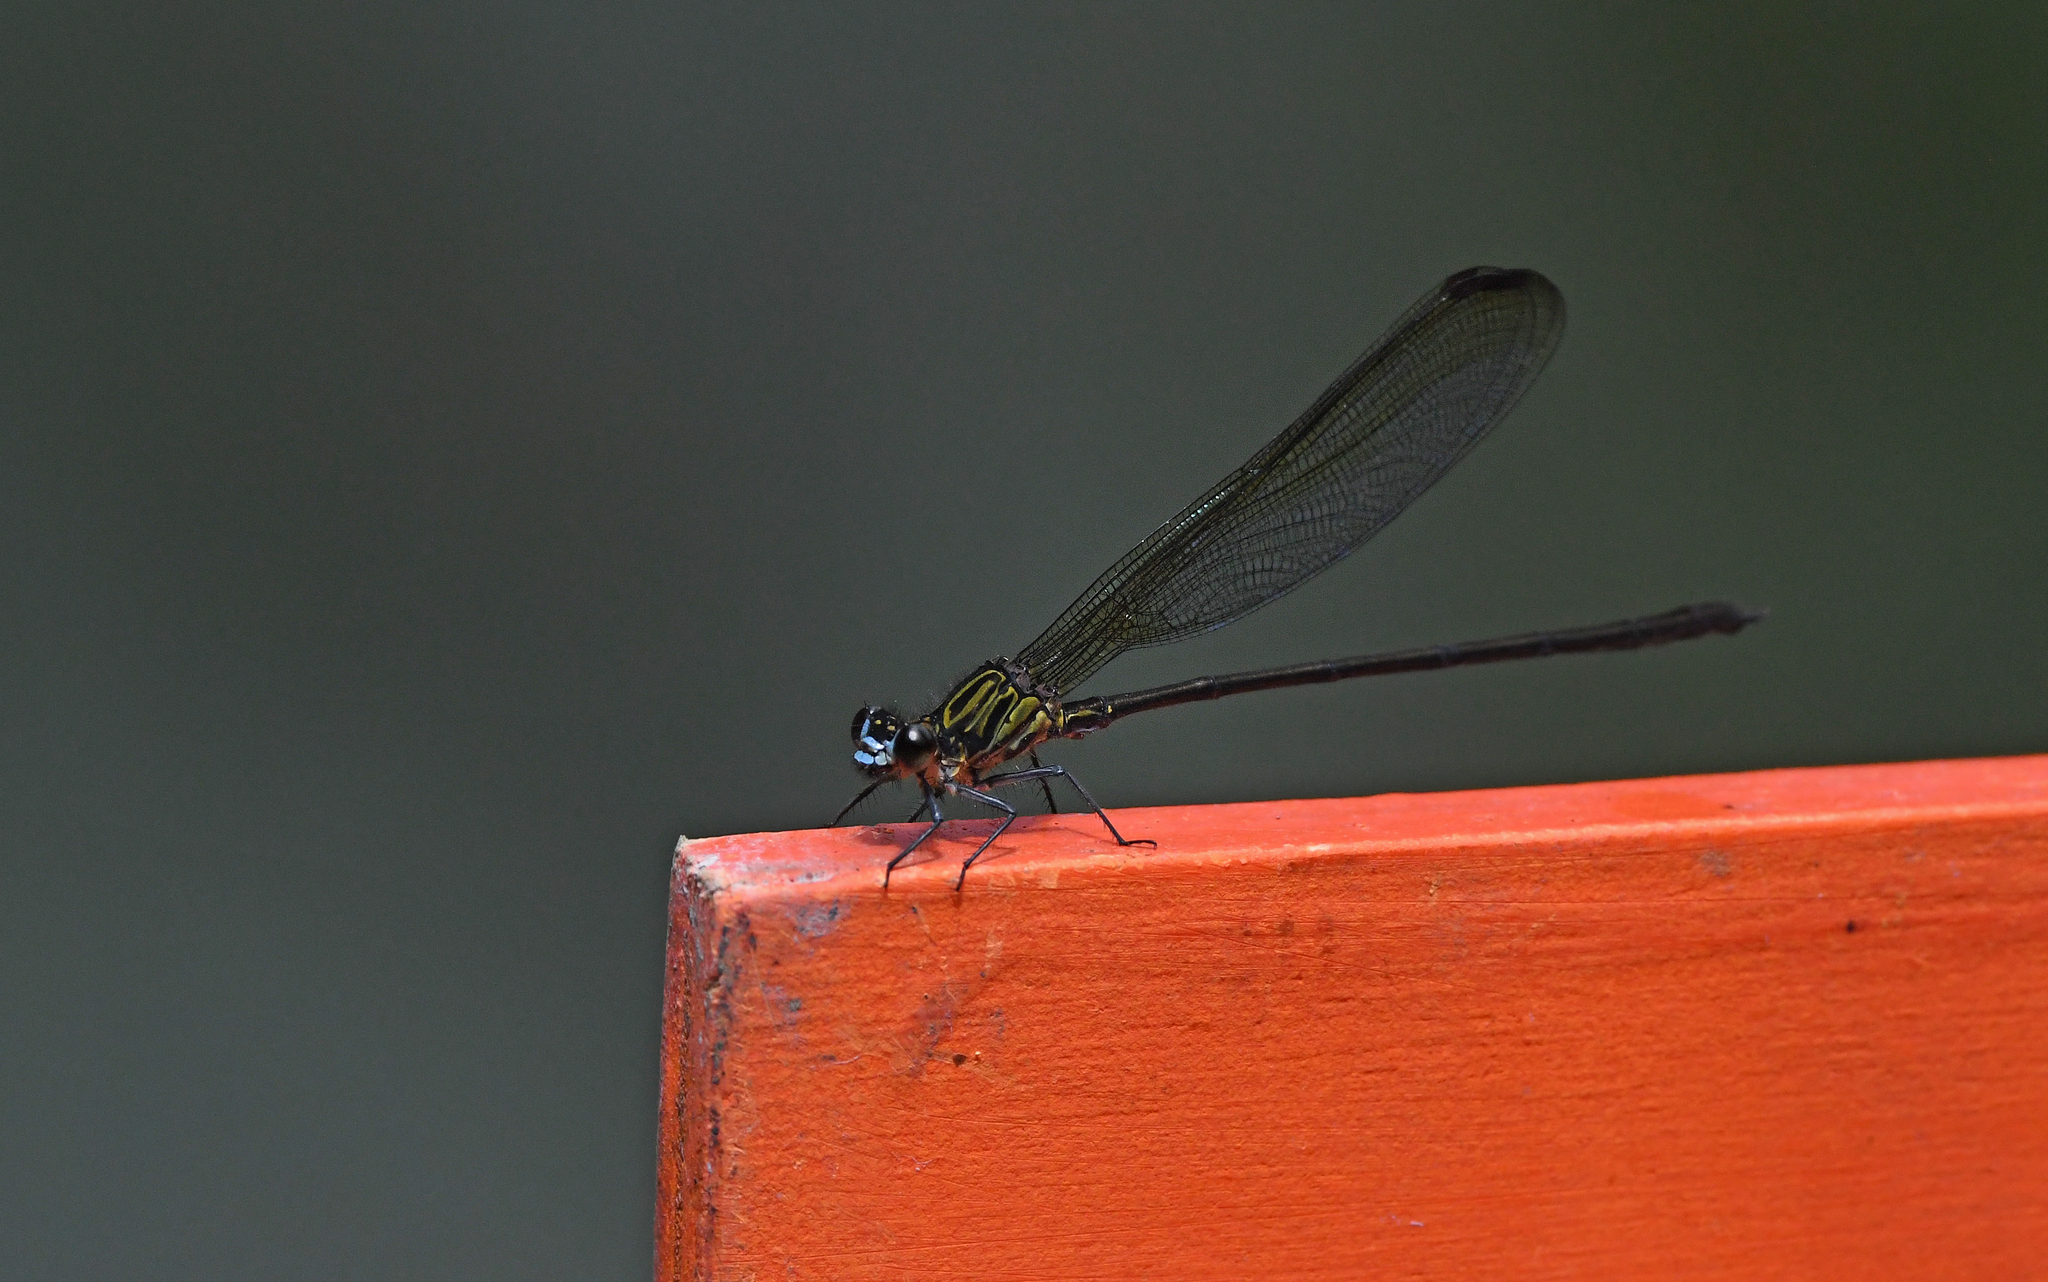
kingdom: Animalia
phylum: Arthropoda
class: Insecta
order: Odonata
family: Polythoridae
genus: Euthore
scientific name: Euthore terminalis
